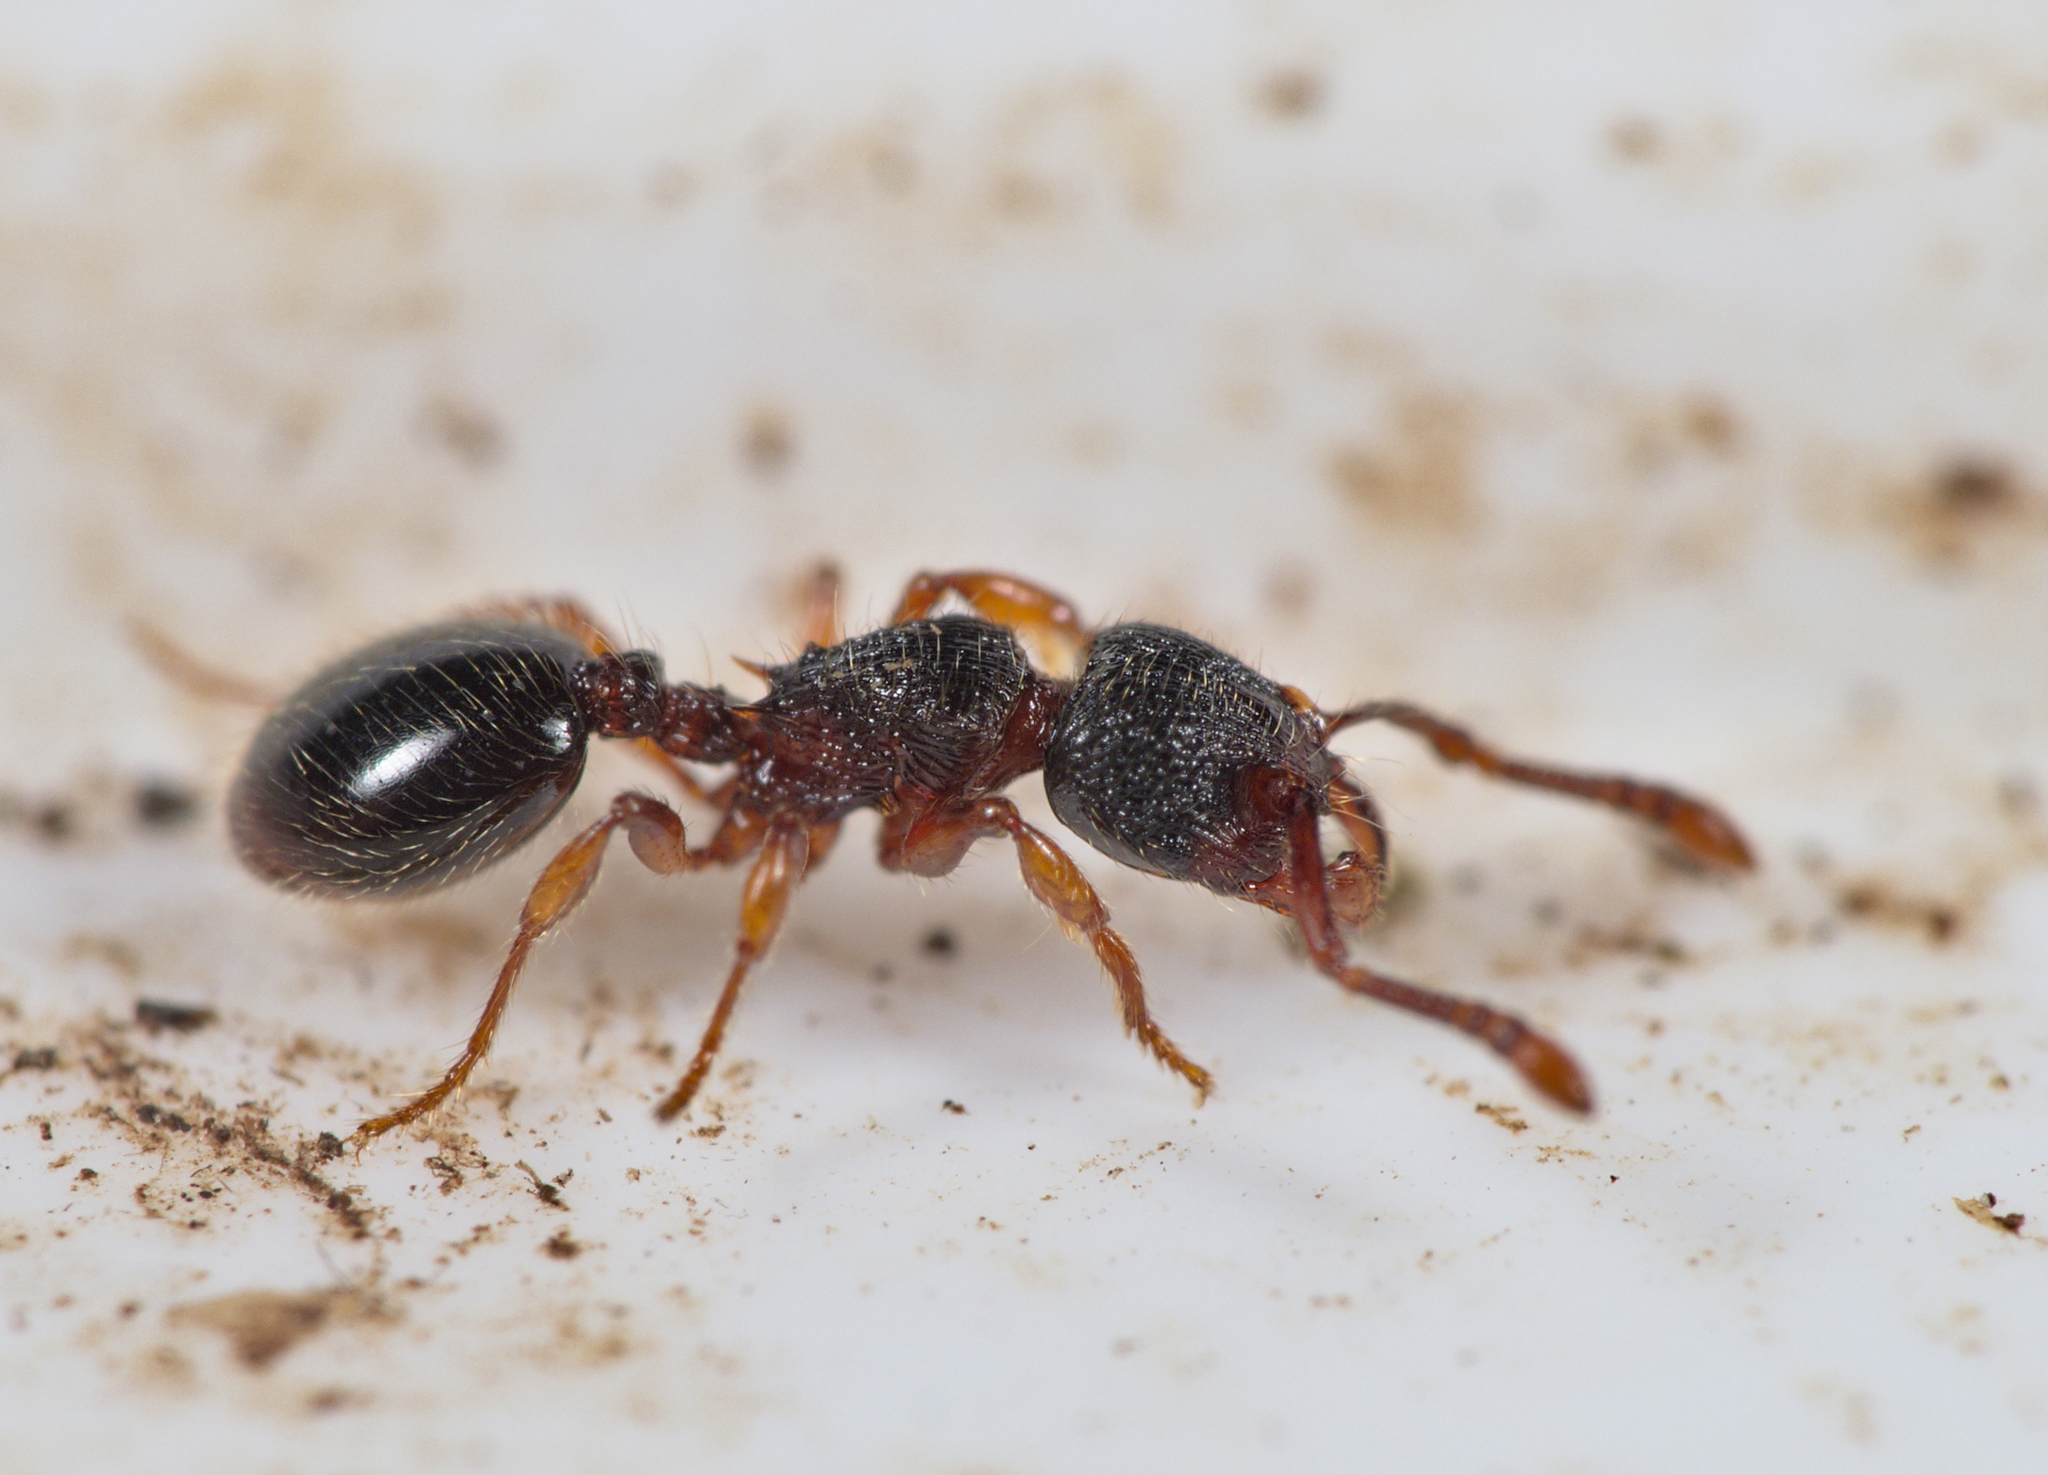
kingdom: Animalia
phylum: Arthropoda
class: Insecta
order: Hymenoptera
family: Formicidae
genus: Myrmecina
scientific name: Myrmecina graminicola
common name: Grass ant
